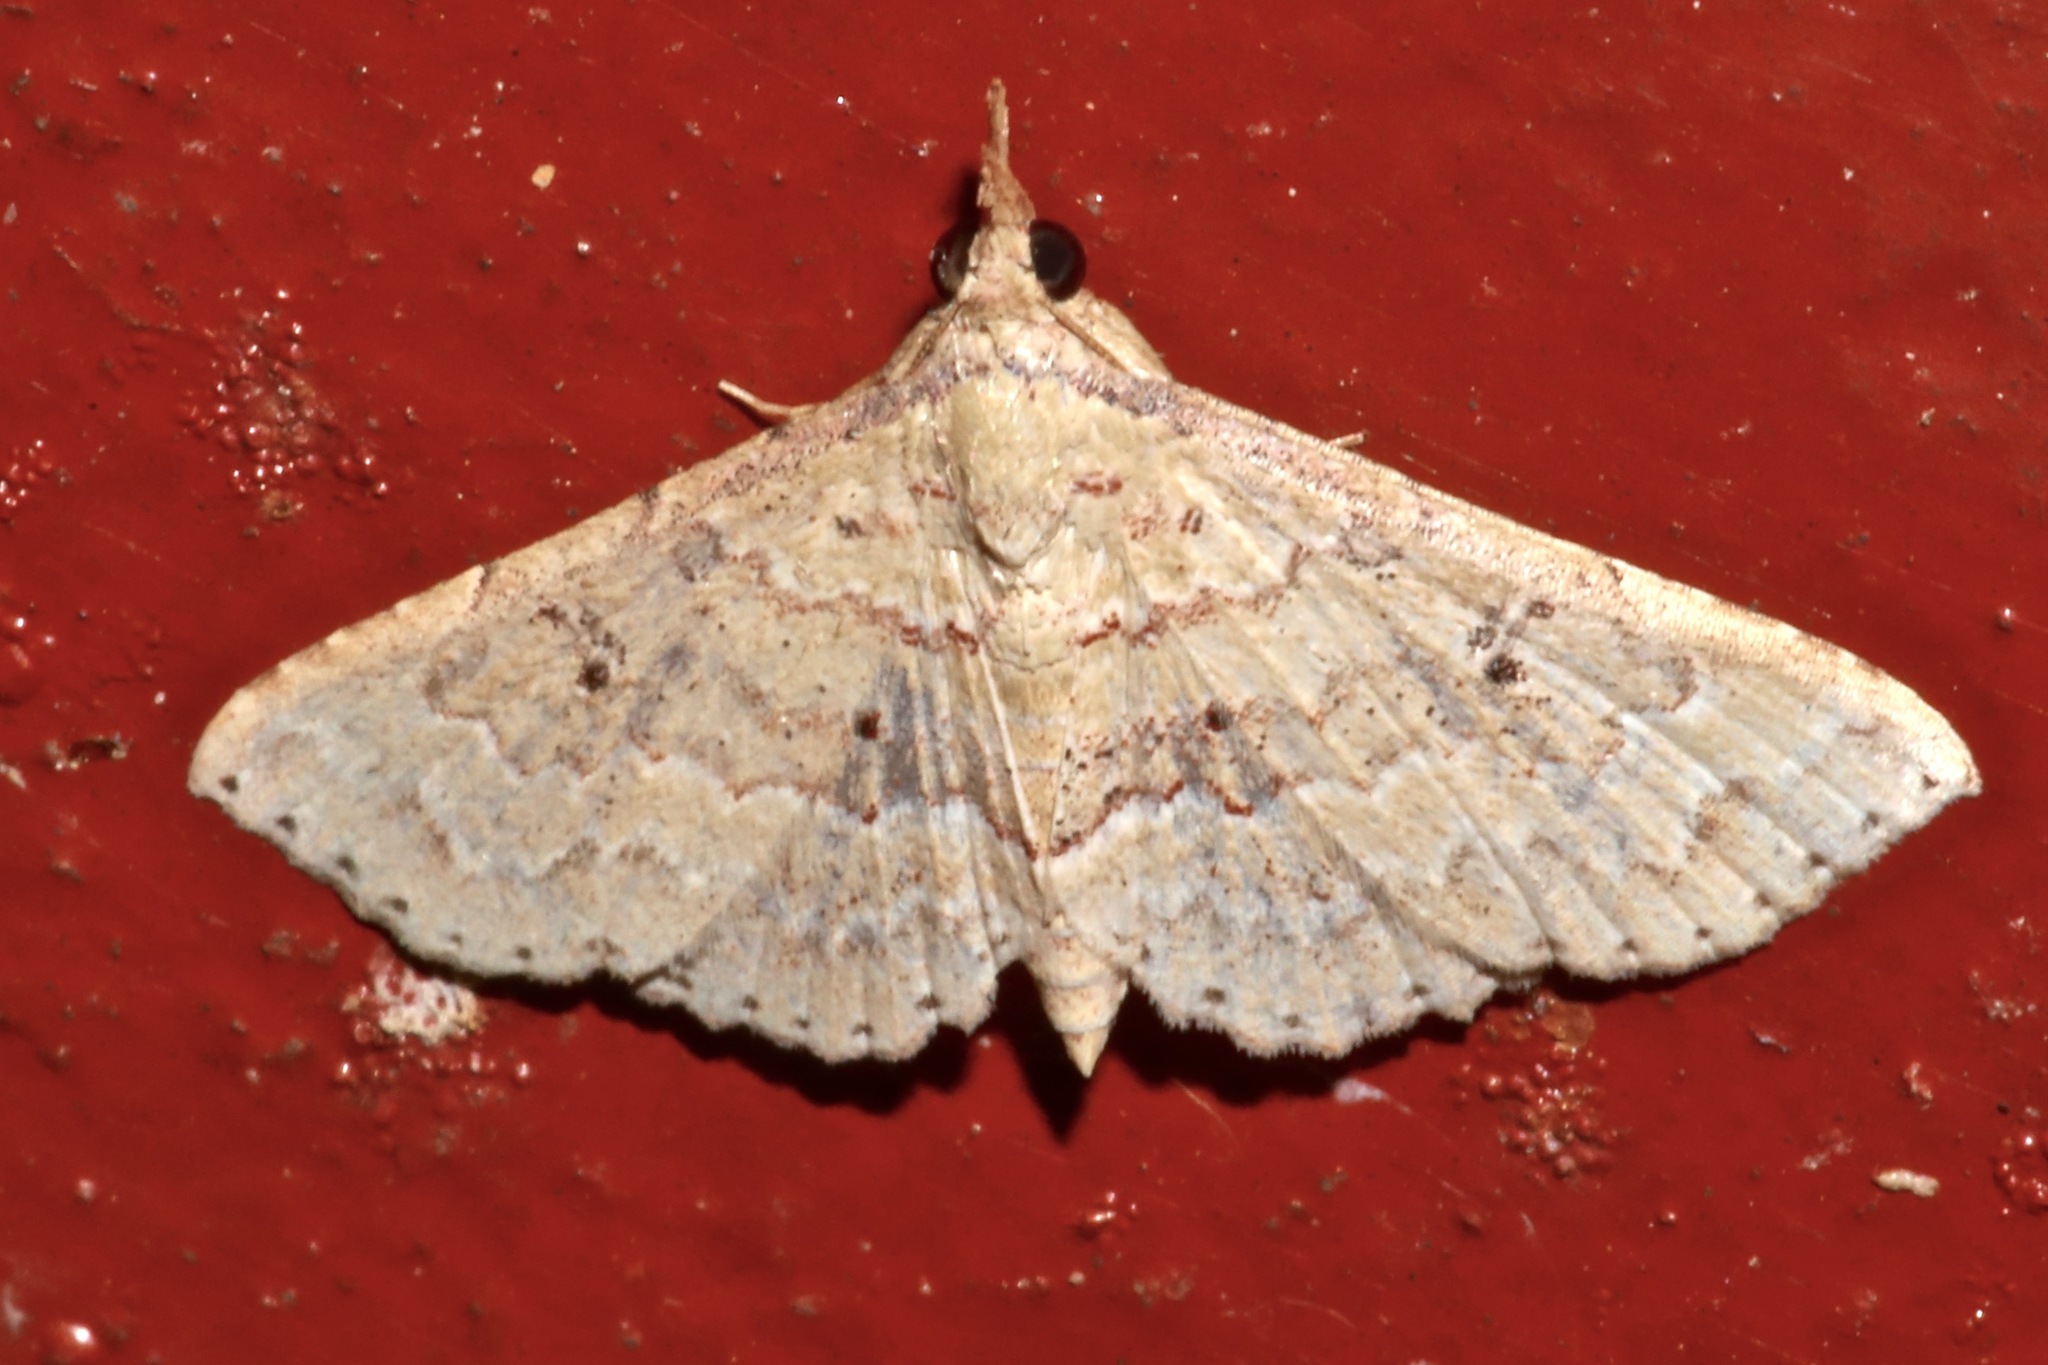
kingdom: Animalia
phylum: Arthropoda
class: Insecta
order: Lepidoptera
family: Erebidae
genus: Mursa
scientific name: Mursa phtisialis
